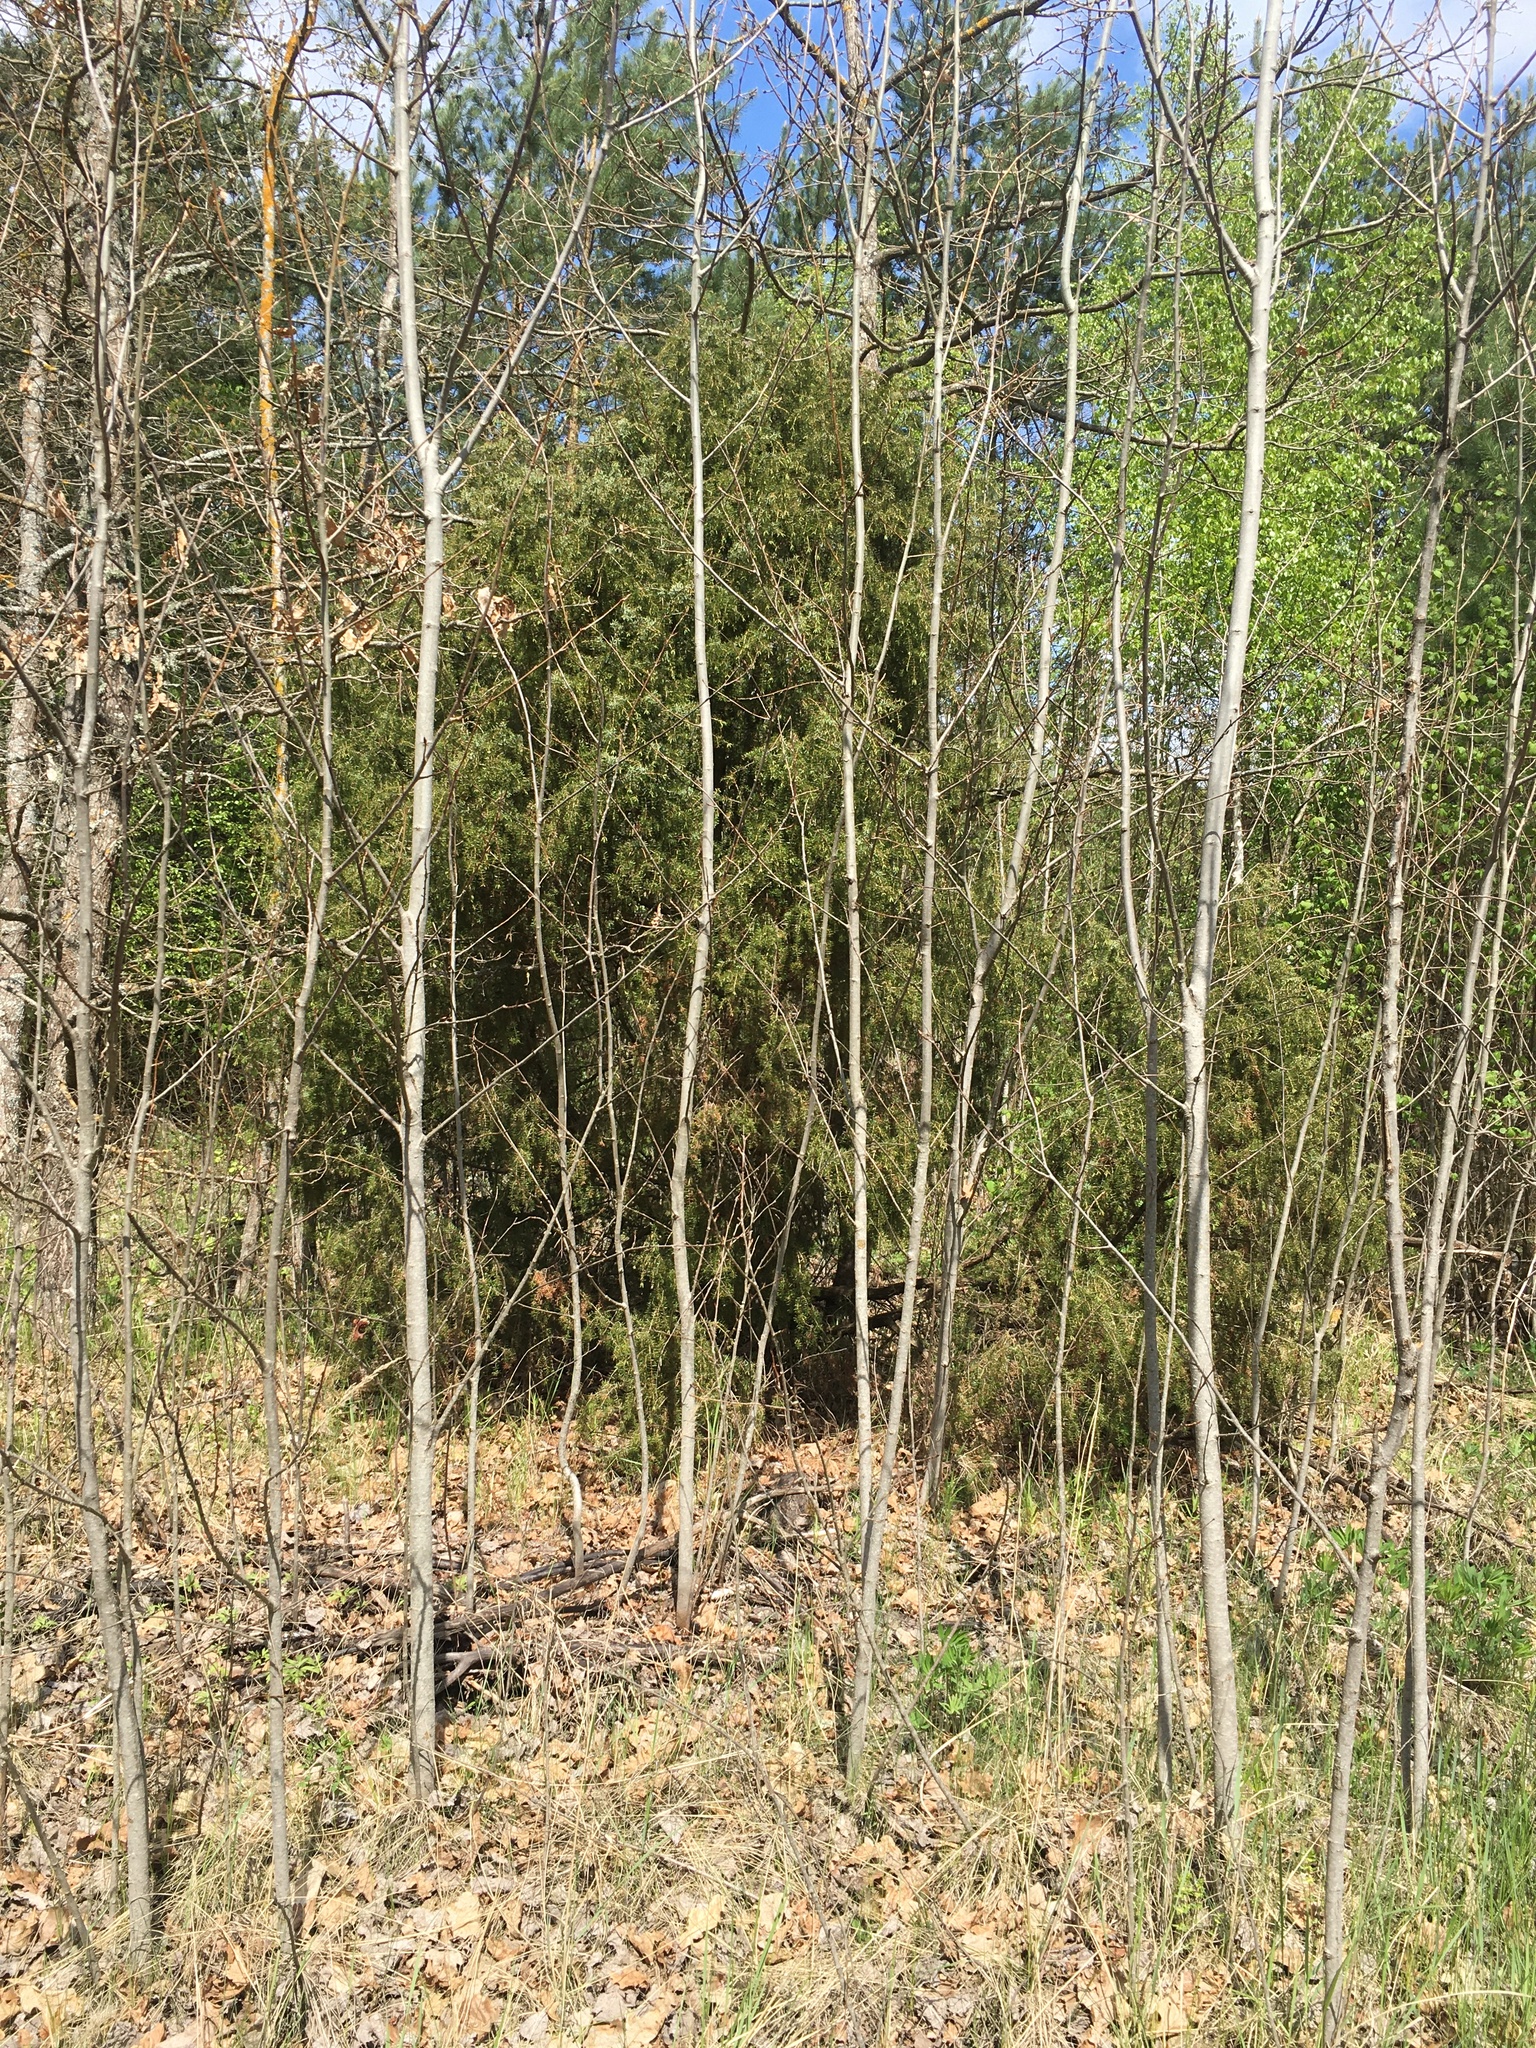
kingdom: Plantae
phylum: Tracheophyta
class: Pinopsida
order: Pinales
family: Cupressaceae
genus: Juniperus
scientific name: Juniperus communis
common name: Common juniper
